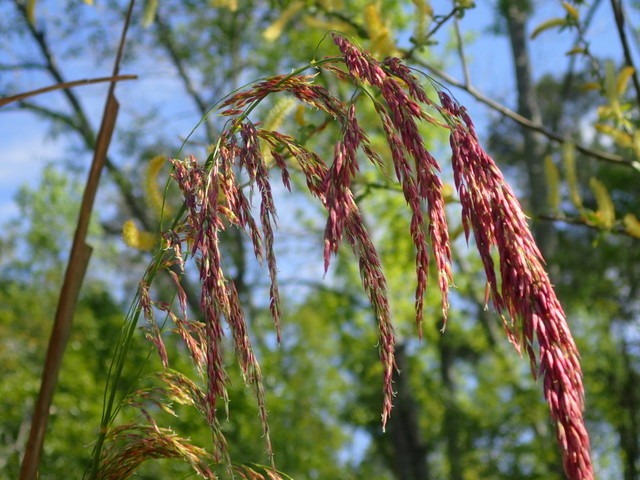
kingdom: Plantae
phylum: Tracheophyta
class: Liliopsida
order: Poales
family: Poaceae
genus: Zizania
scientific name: Zizania aquatica
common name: Annual wildrice
